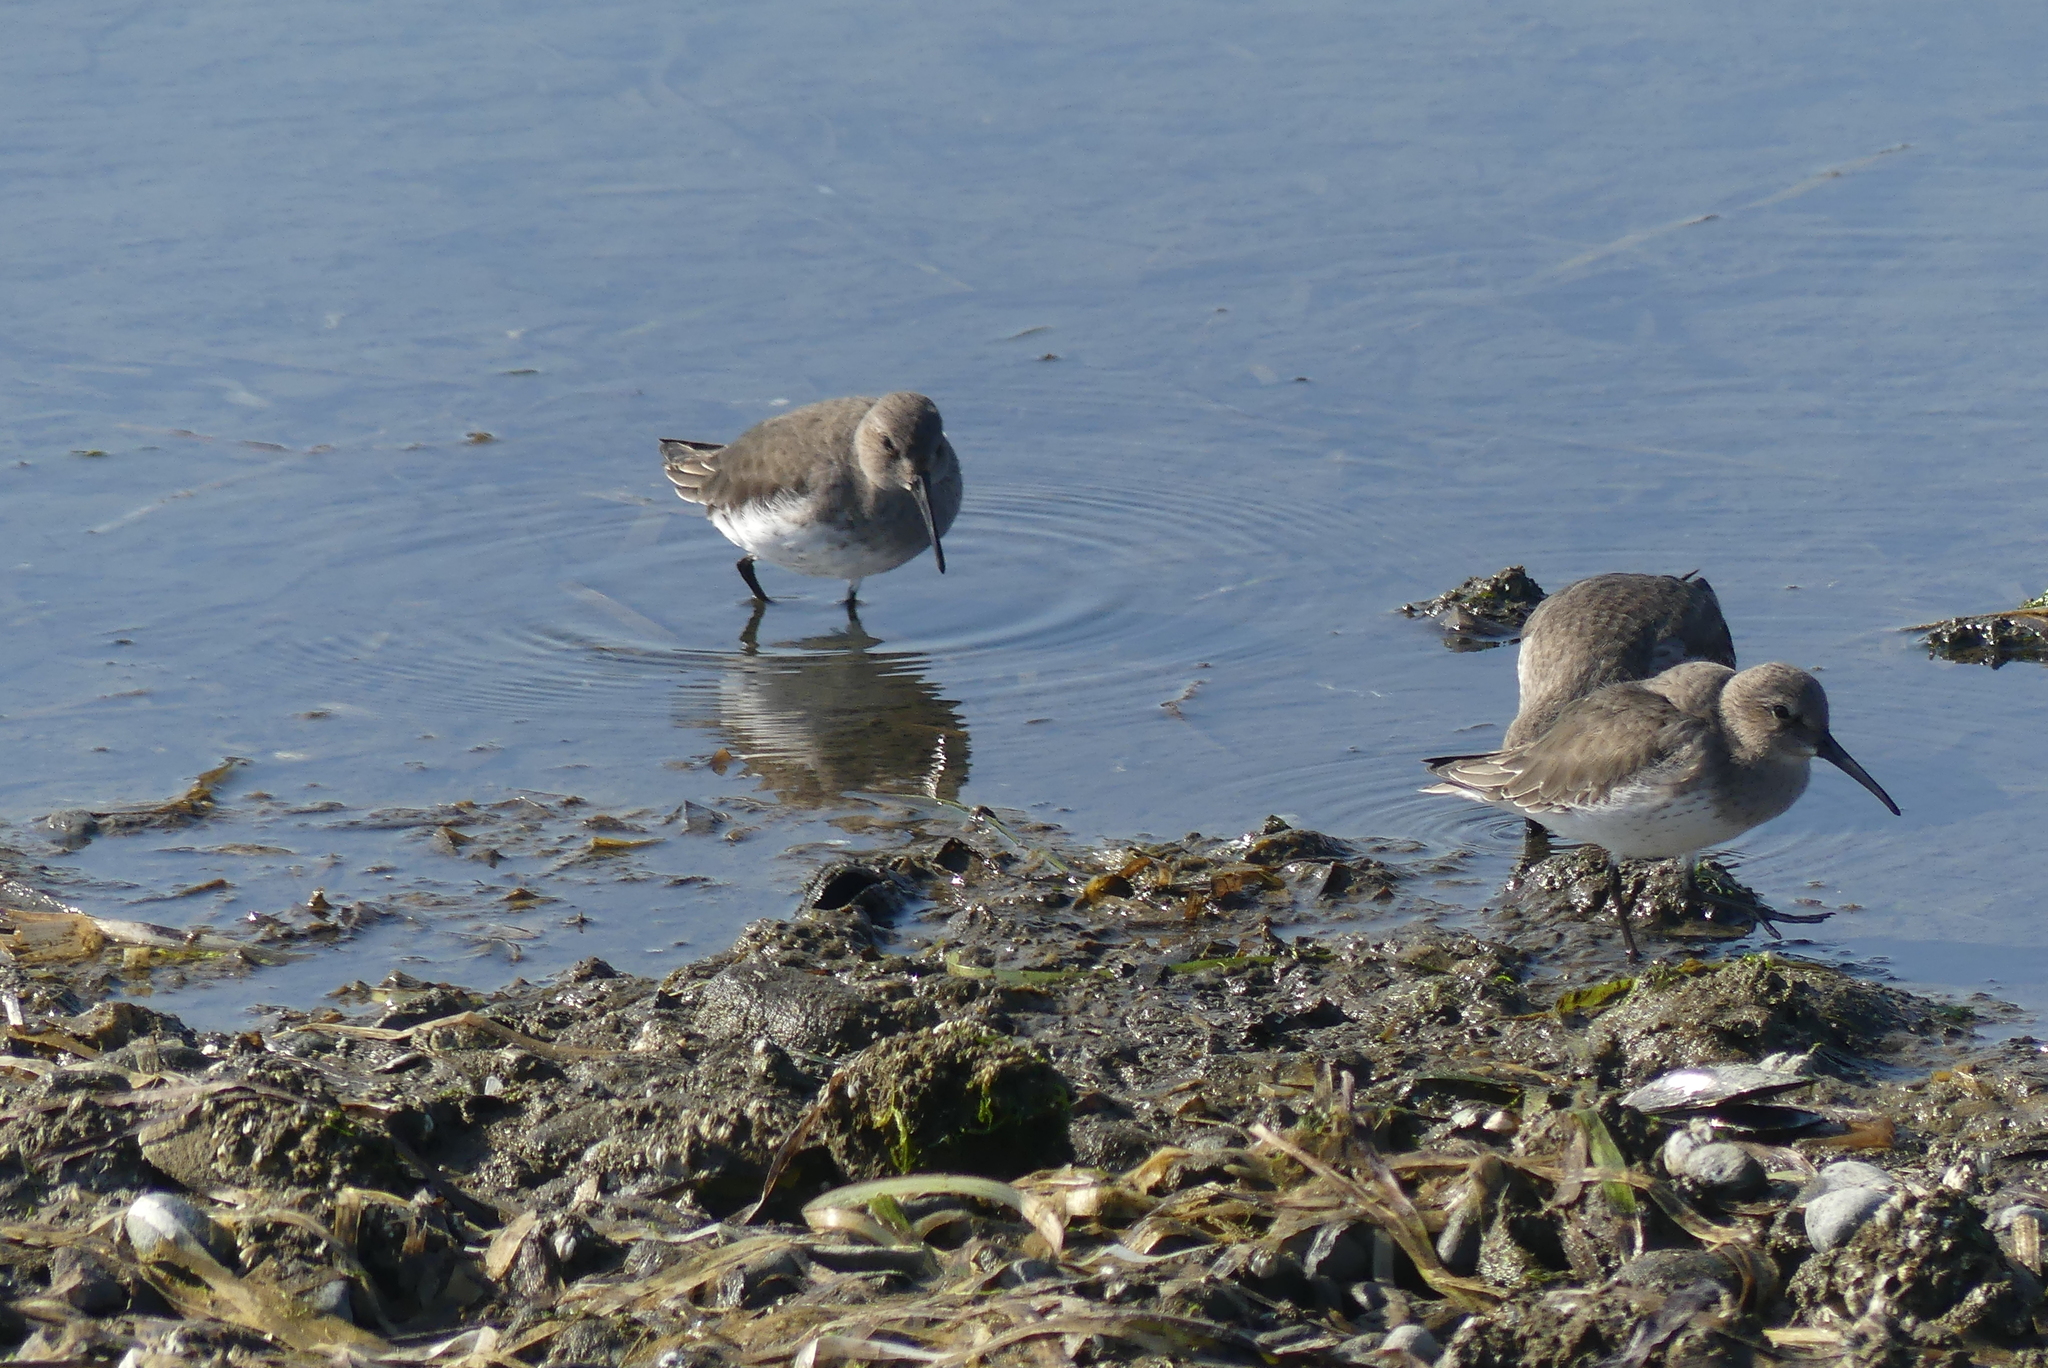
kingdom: Animalia
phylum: Chordata
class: Aves
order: Charadriiformes
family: Scolopacidae
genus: Calidris
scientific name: Calidris alpina
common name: Dunlin
